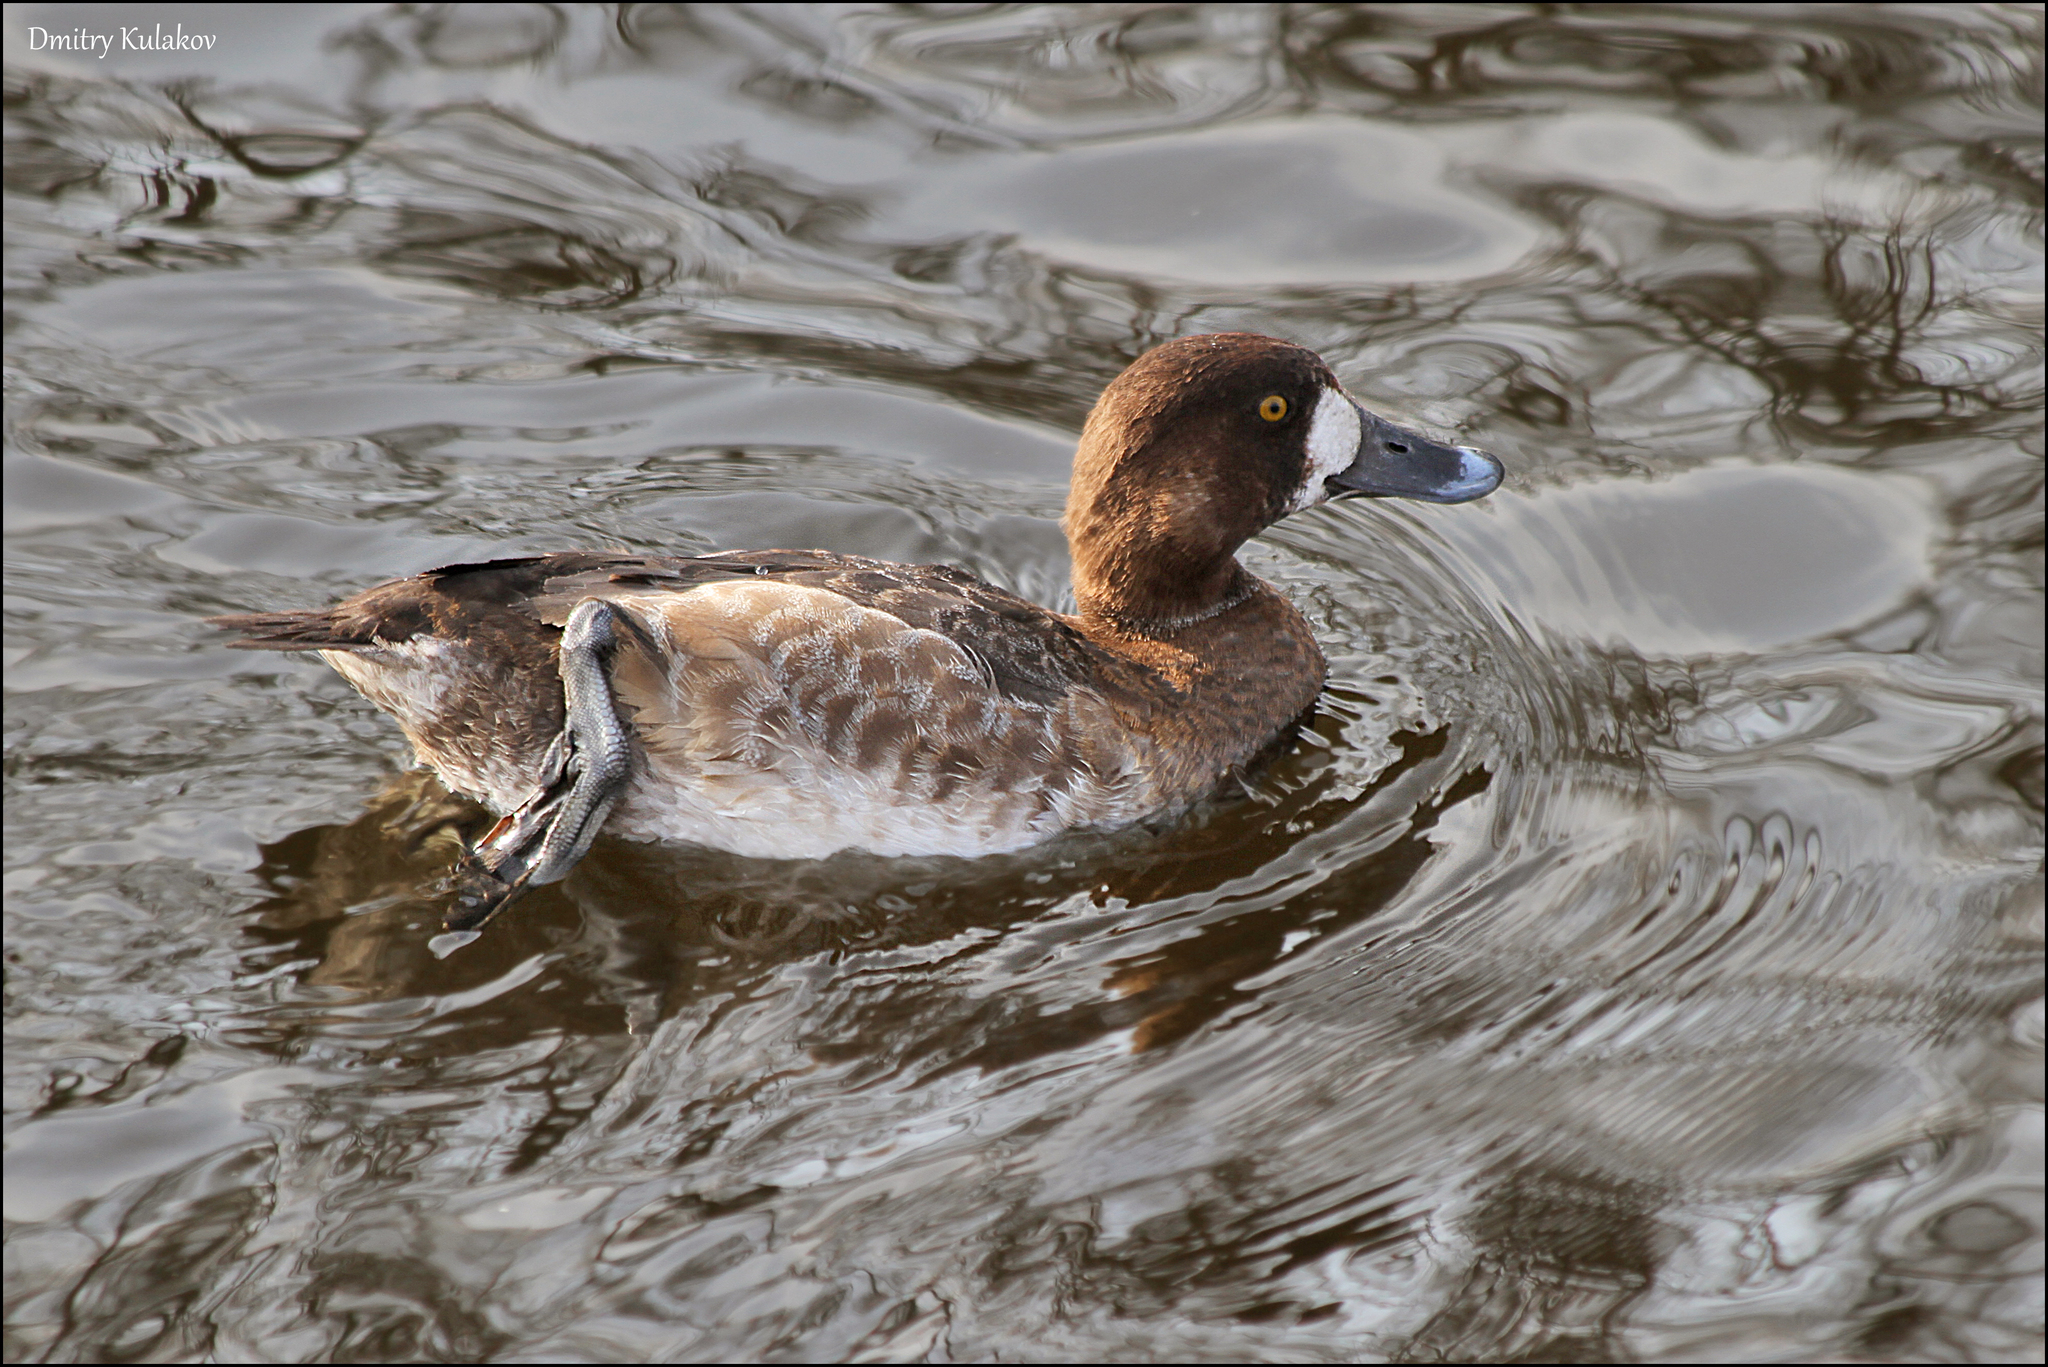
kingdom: Animalia
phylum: Chordata
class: Aves
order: Anseriformes
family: Anatidae
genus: Aythya
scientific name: Aythya marila
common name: Greater scaup
